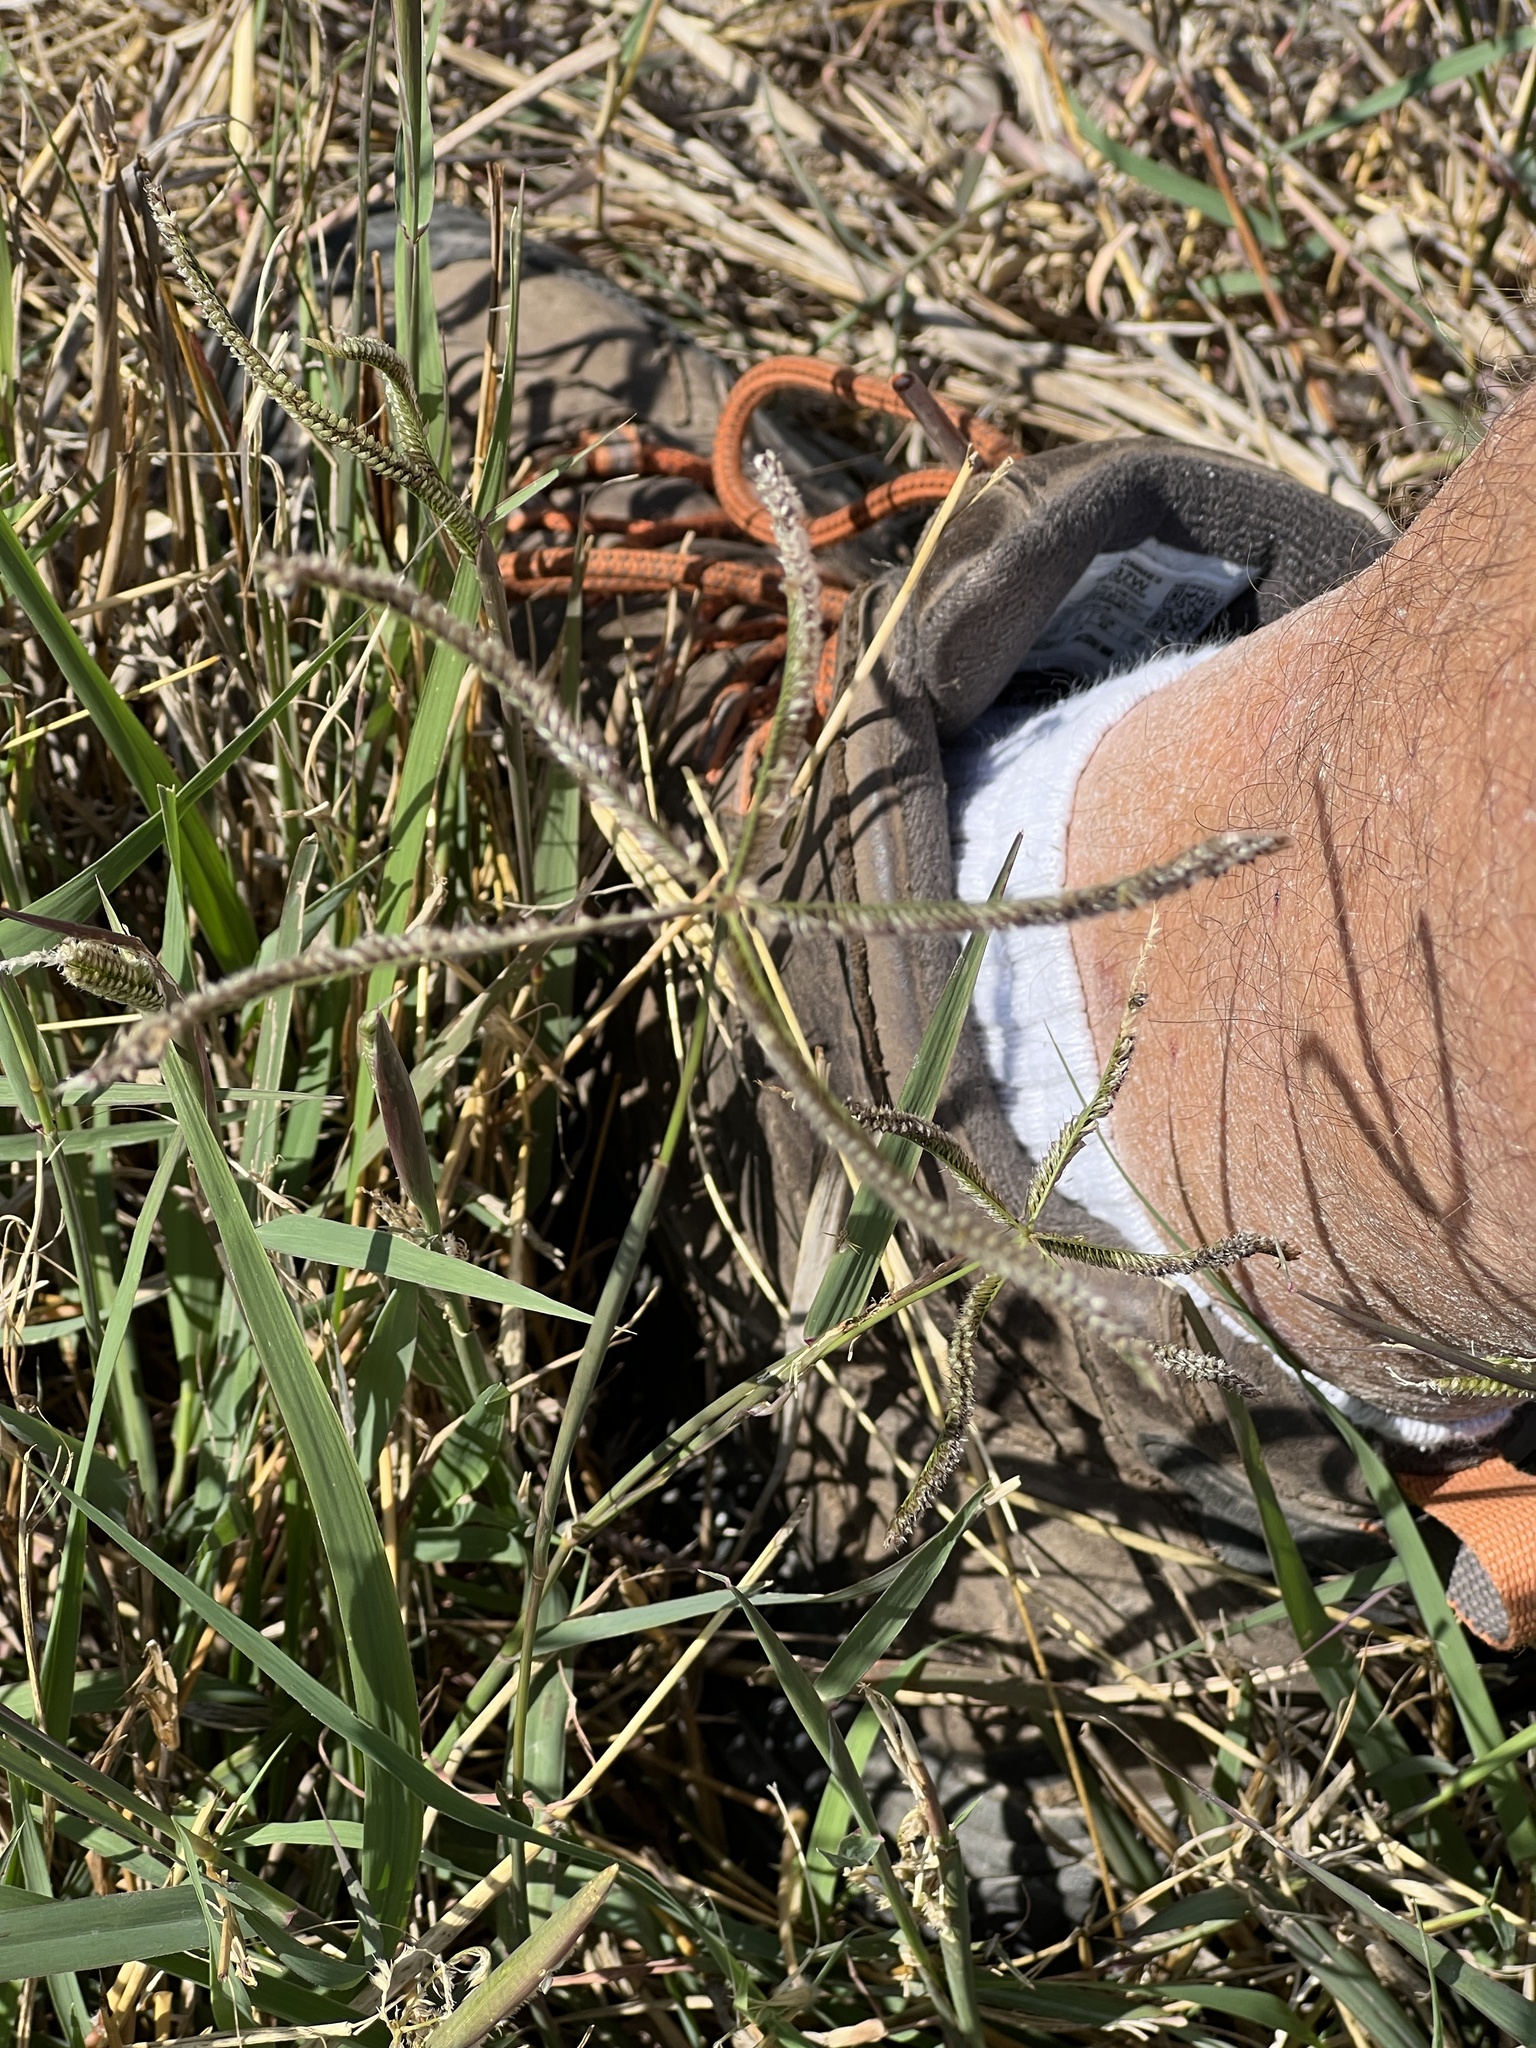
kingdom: Plantae
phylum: Tracheophyta
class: Liliopsida
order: Poales
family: Poaceae
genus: Stapfochloa
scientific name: Stapfochloa ciliata
